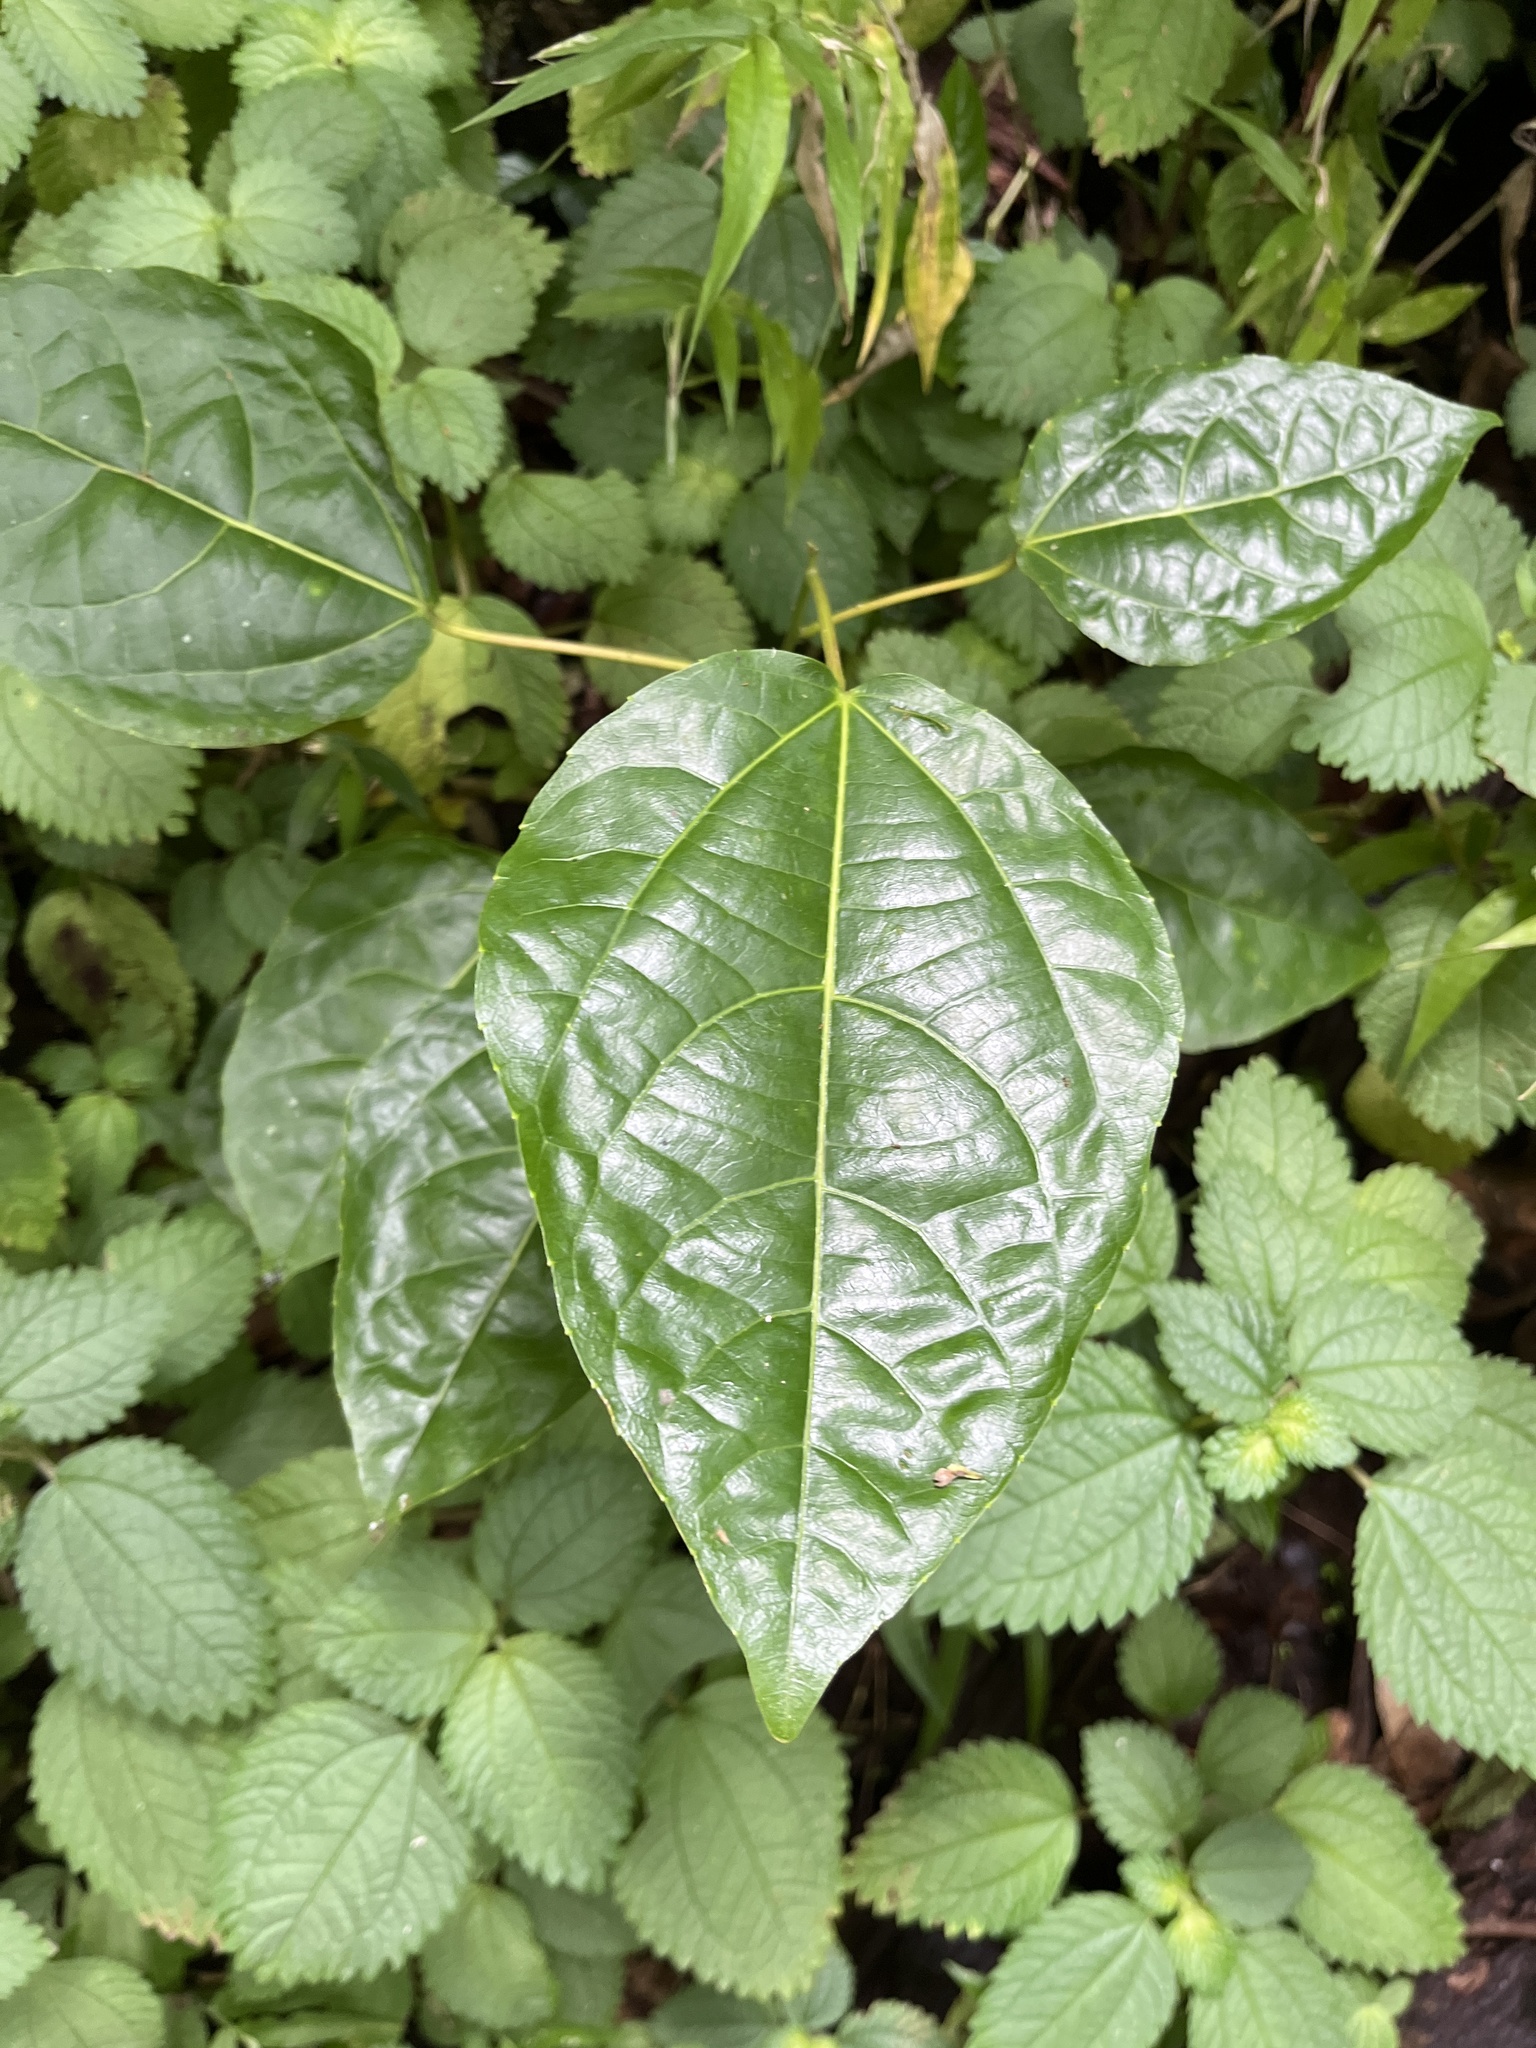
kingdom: Plantae
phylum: Tracheophyta
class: Magnoliopsida
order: Malpighiales
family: Euphorbiaceae
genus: Alchornea
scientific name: Alchornea latifolia
